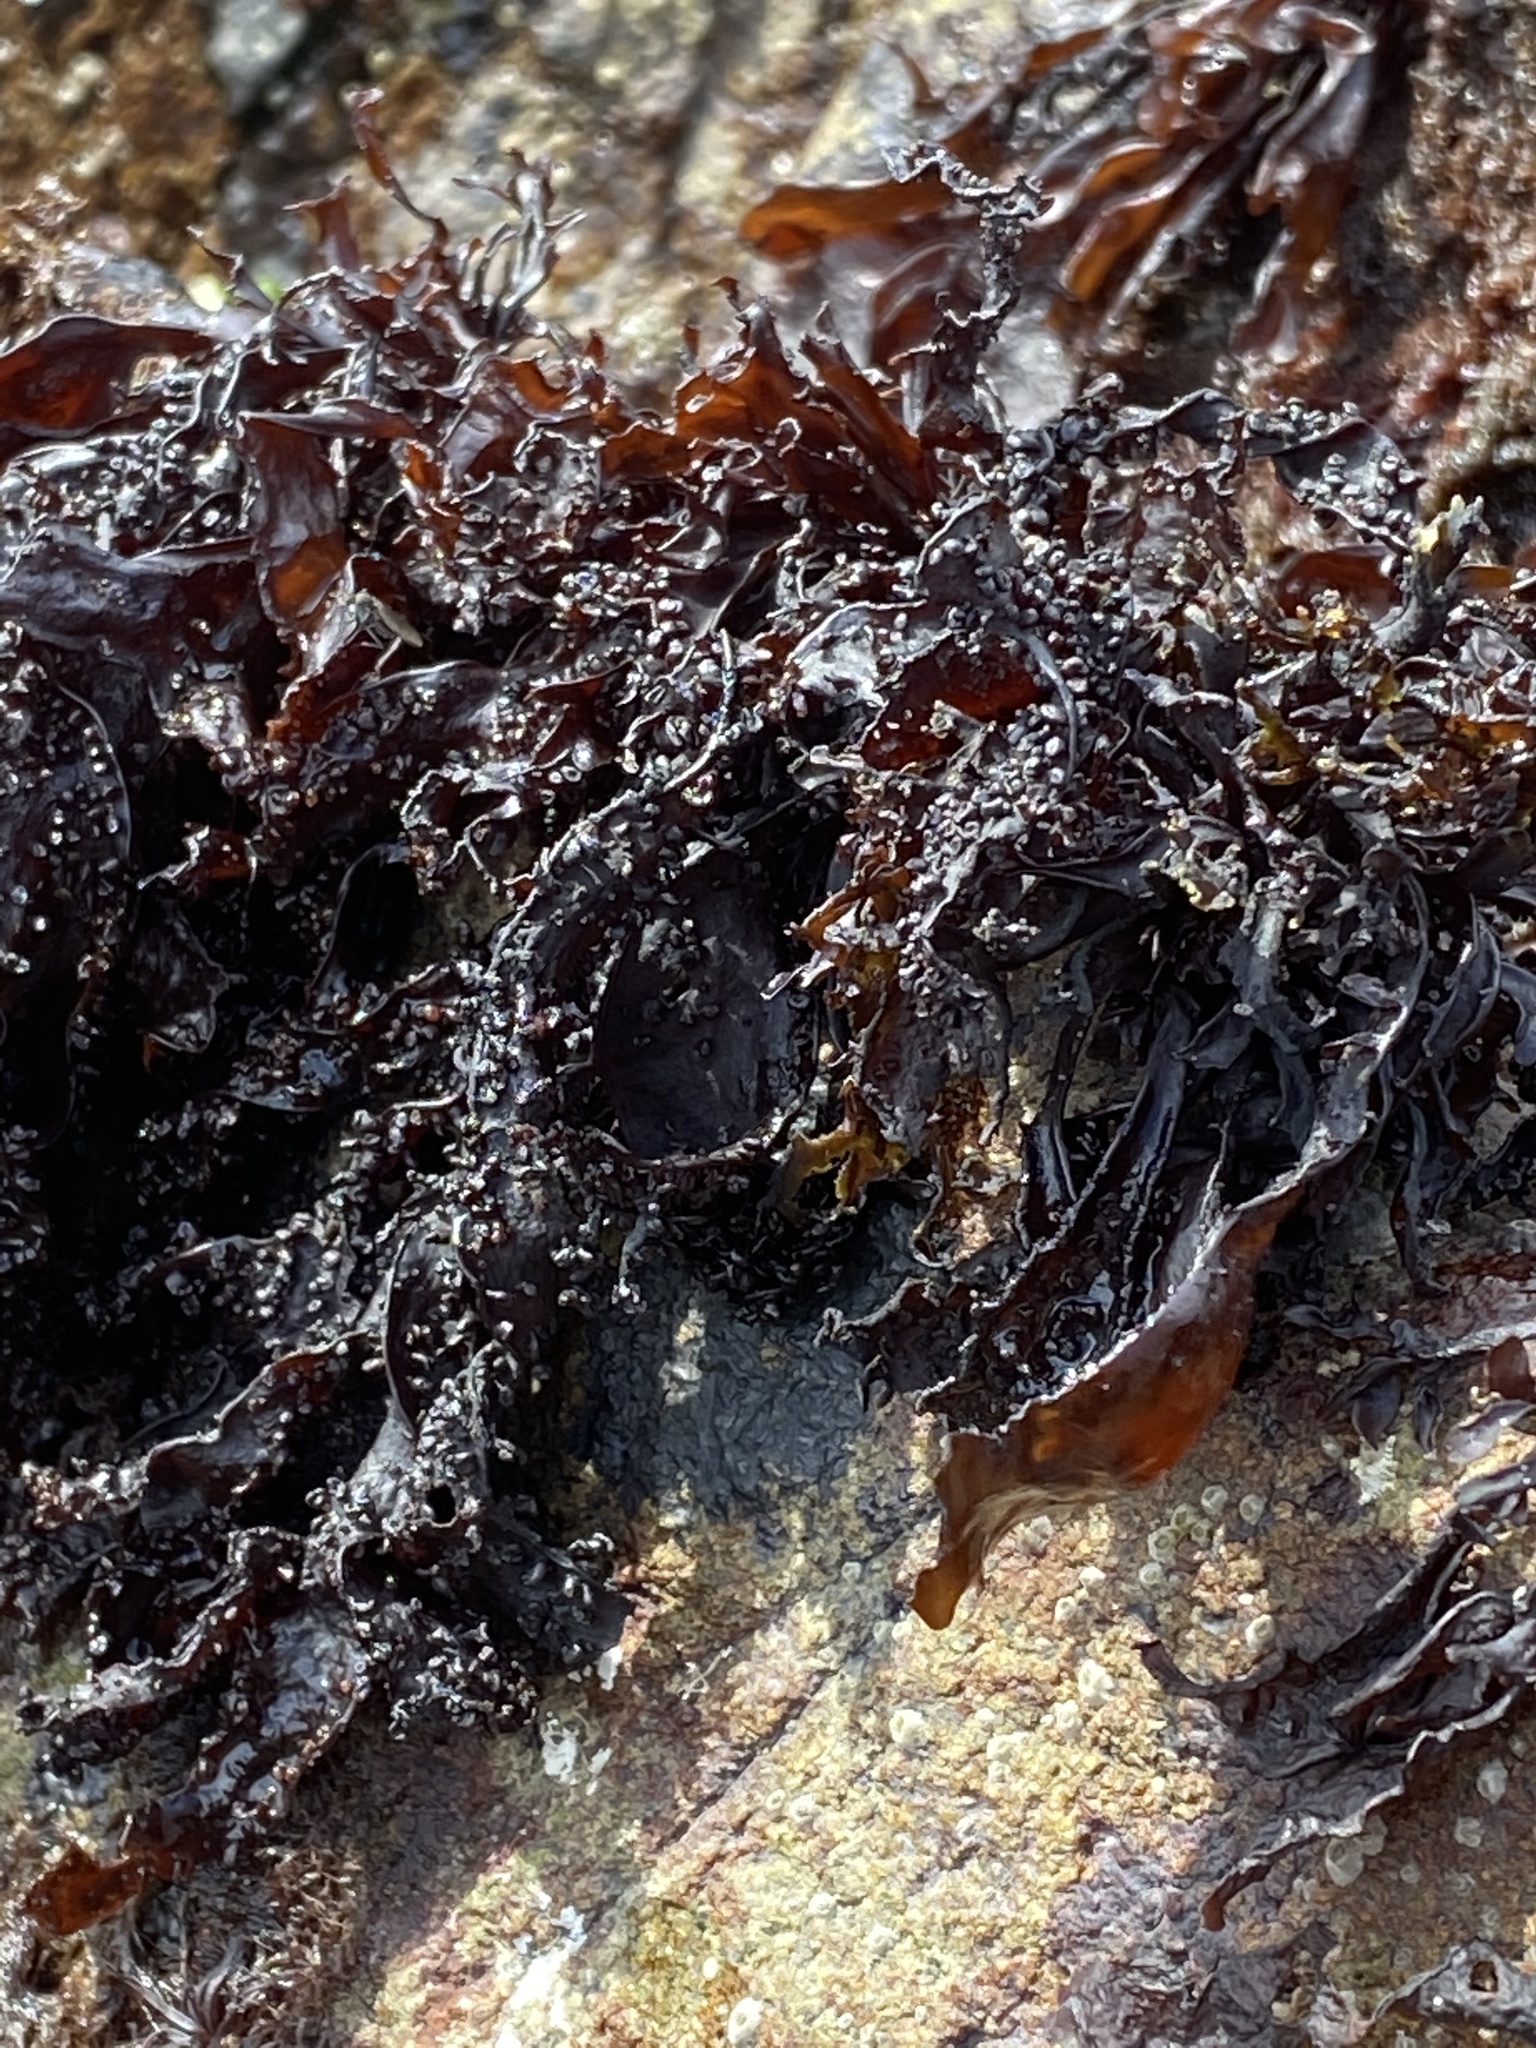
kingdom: Plantae
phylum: Rhodophyta
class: Florideophyceae
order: Gigartinales
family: Phyllophoraceae
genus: Mastocarpus
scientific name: Mastocarpus papillatus
